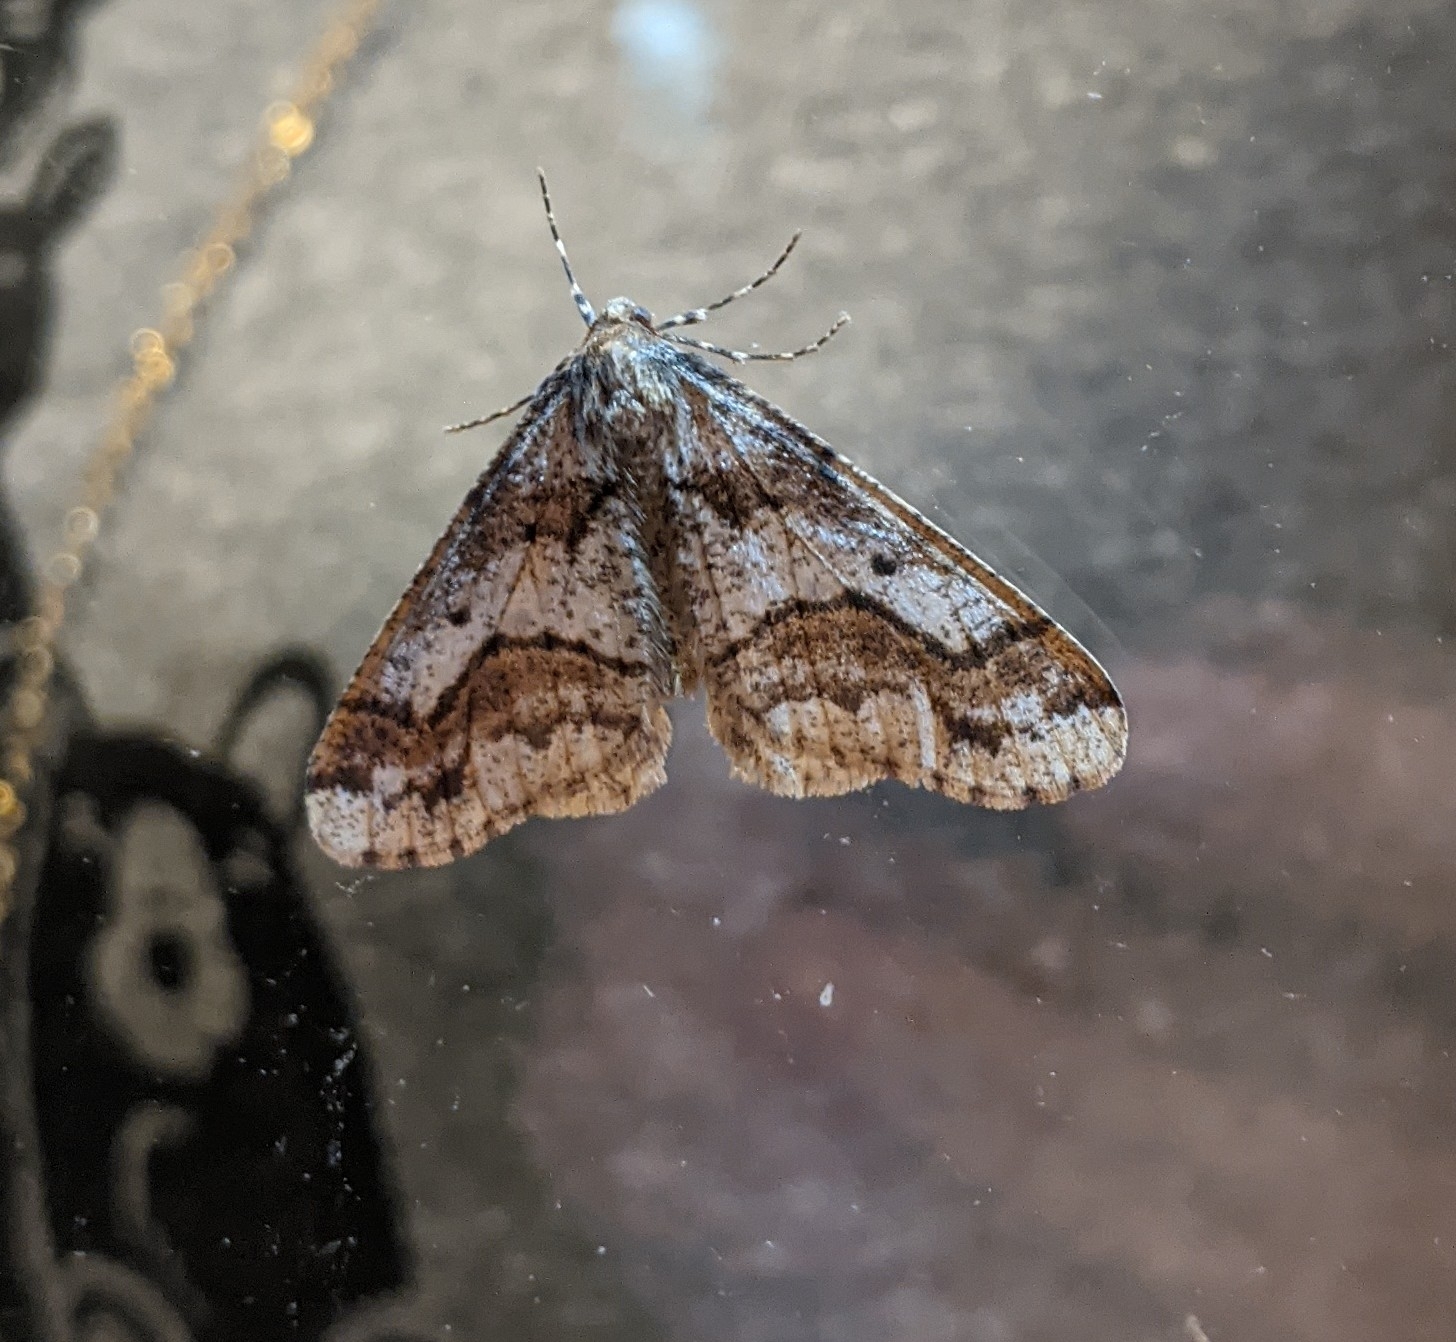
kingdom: Animalia
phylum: Arthropoda
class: Insecta
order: Lepidoptera
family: Geometridae
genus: Erannis
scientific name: Erannis vancouverensis
